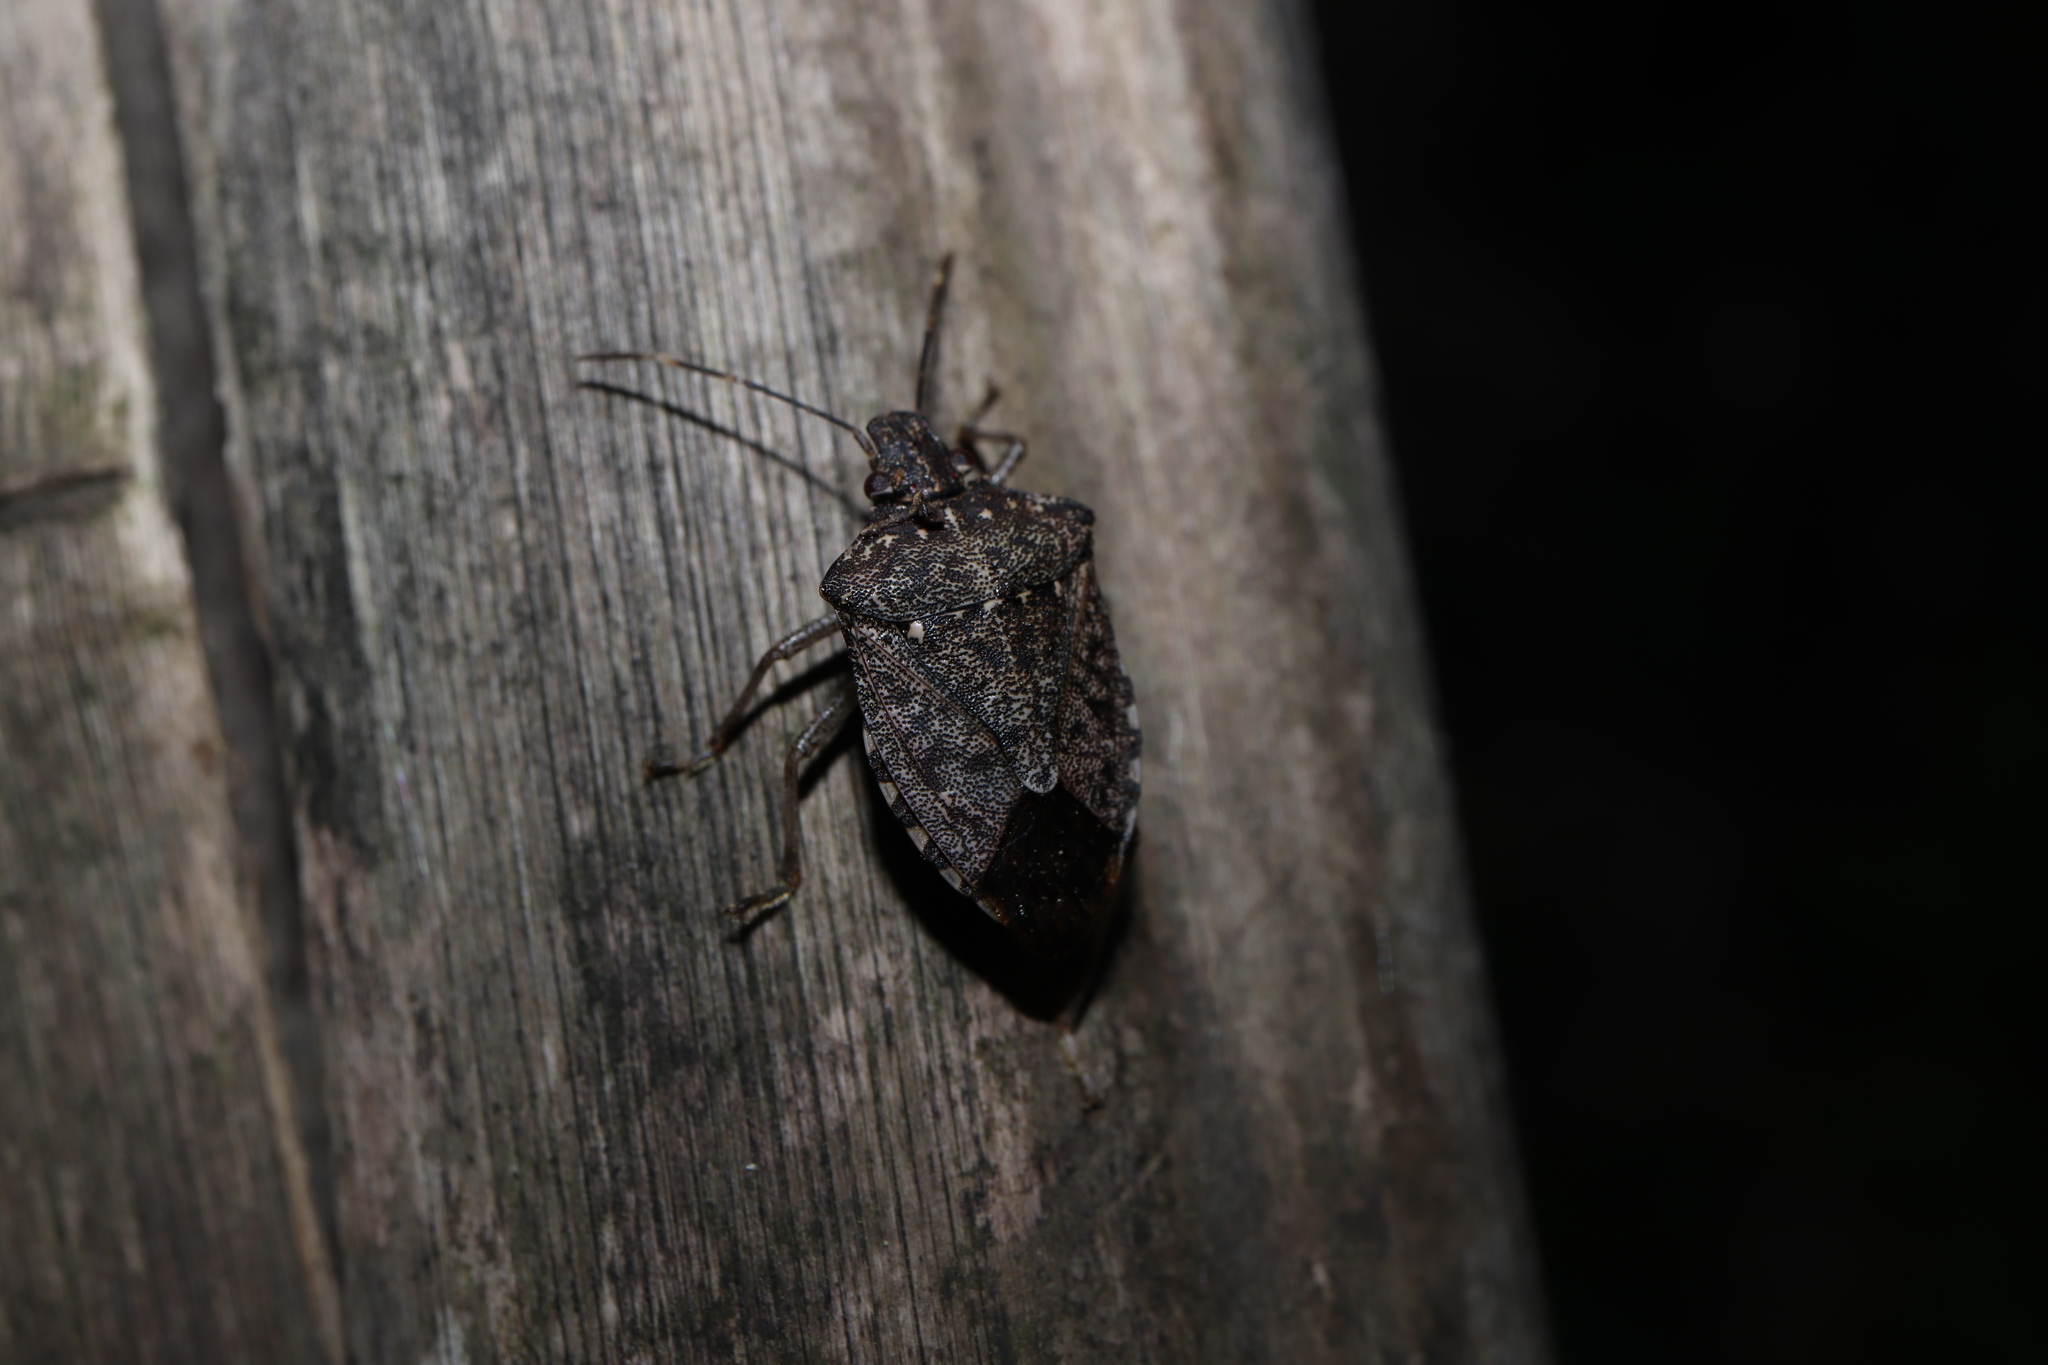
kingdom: Animalia
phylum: Arthropoda
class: Insecta
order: Hemiptera
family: Pentatomidae
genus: Halyomorpha
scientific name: Halyomorpha halys
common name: Brown marmorated stink bug
